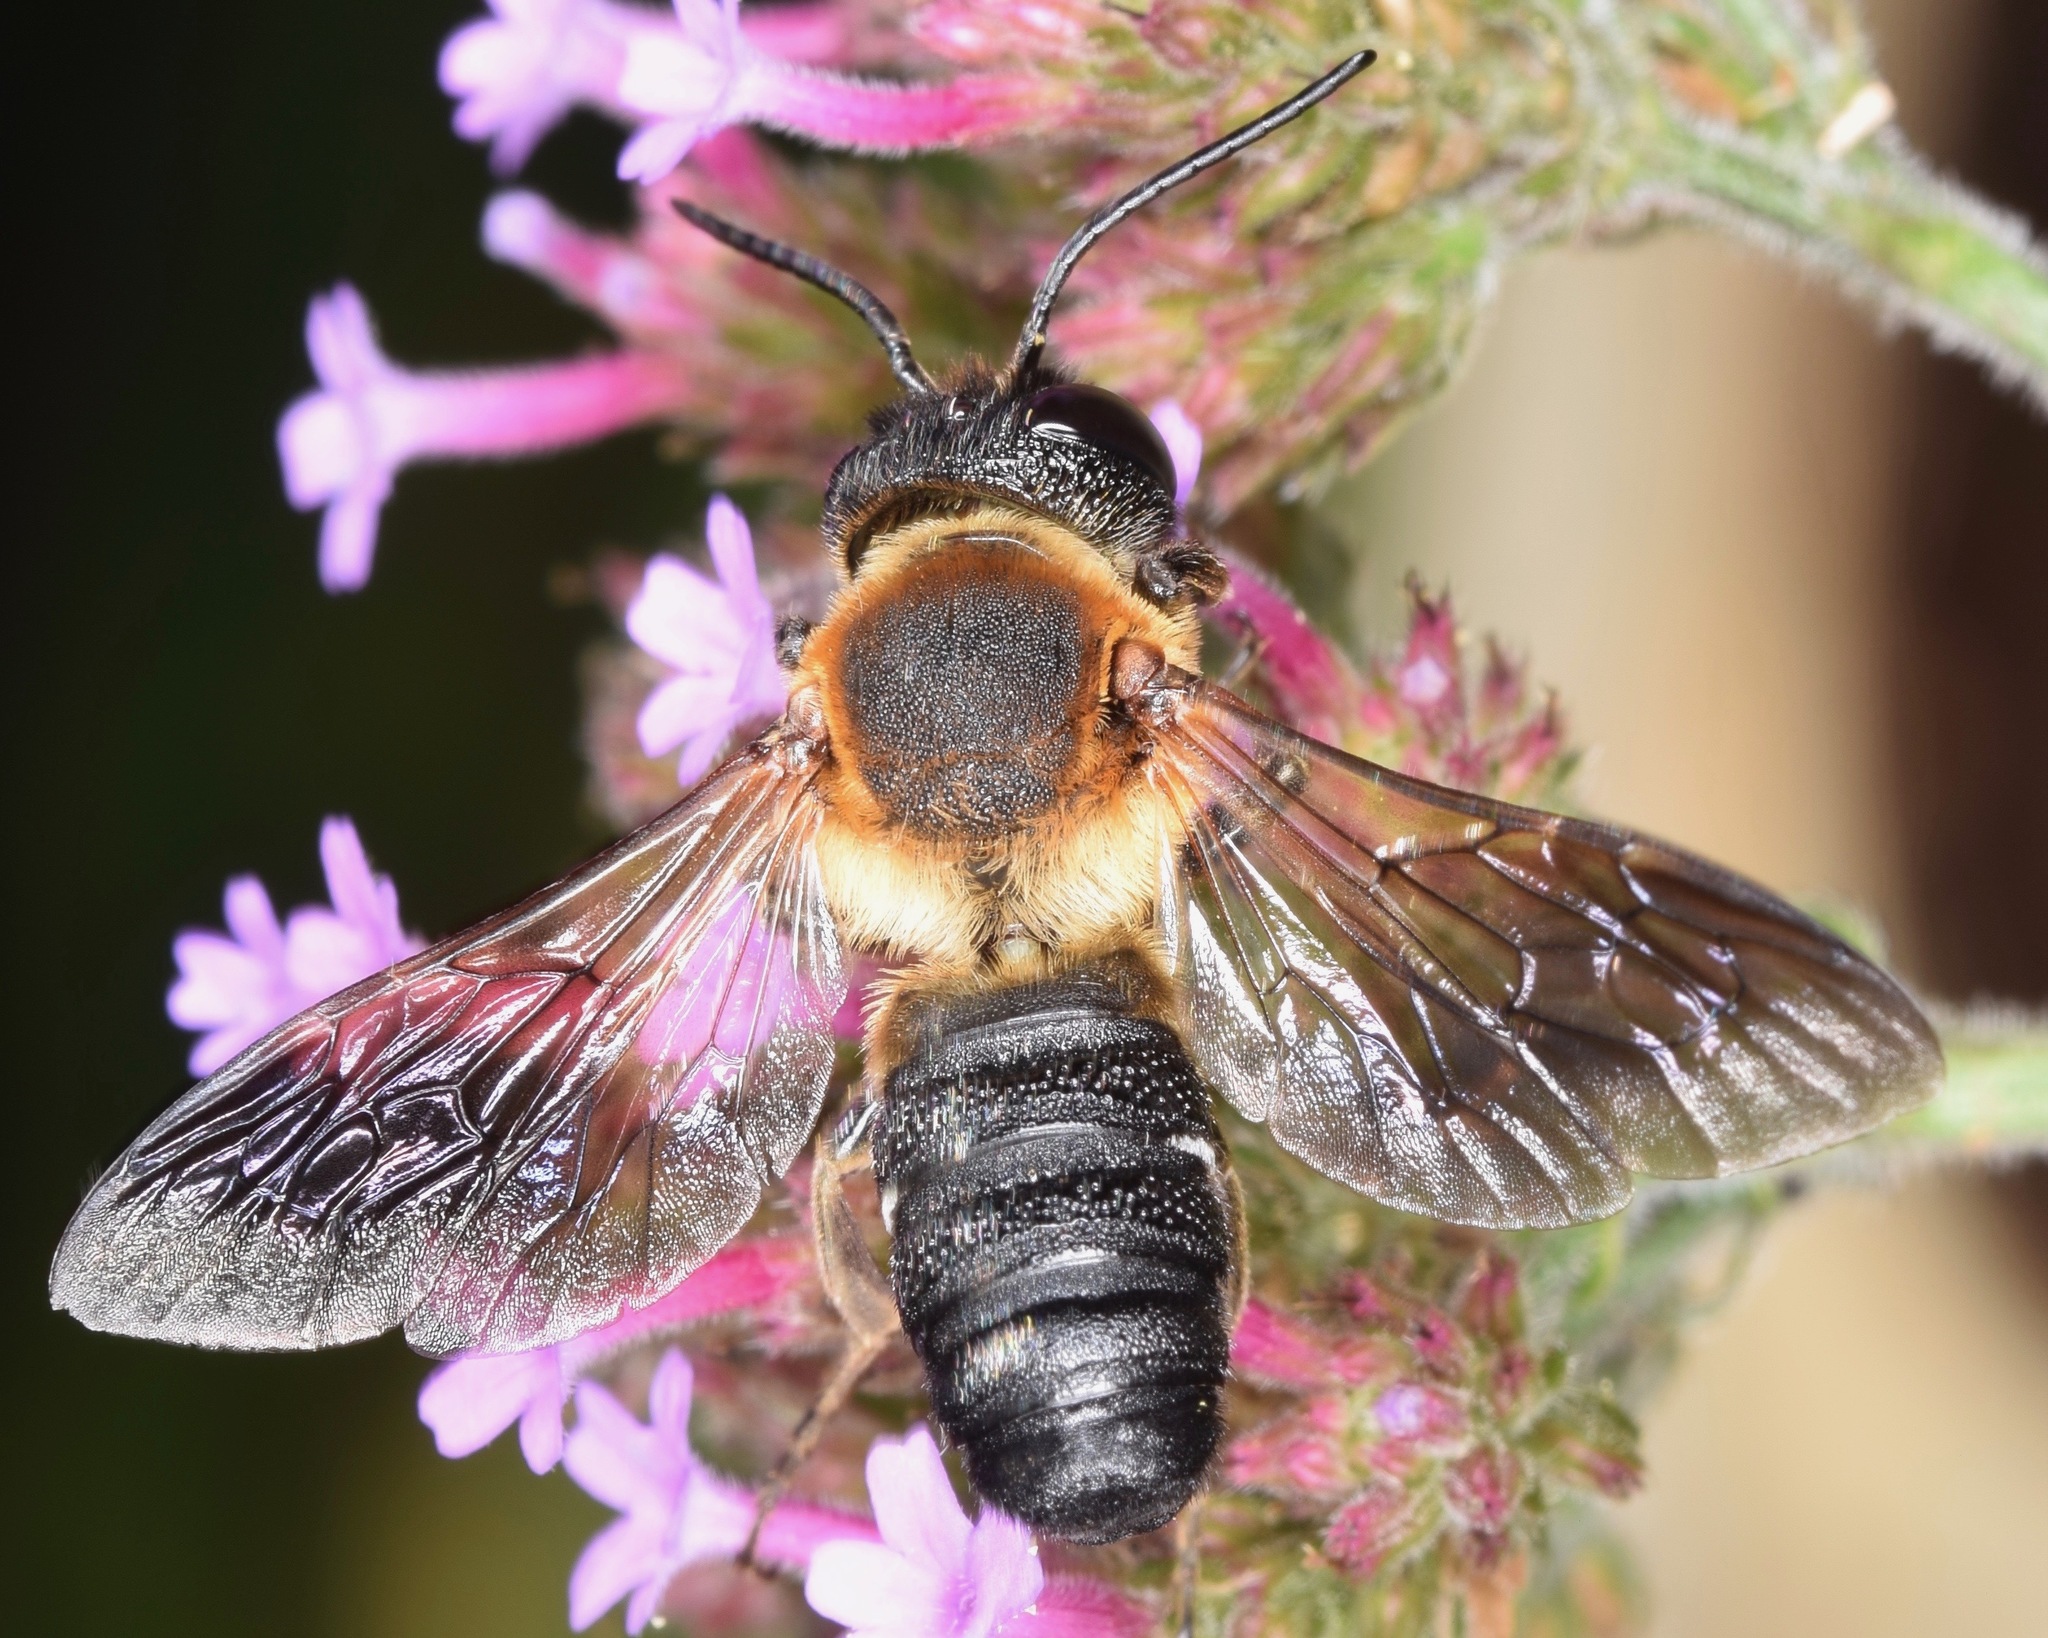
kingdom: Animalia
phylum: Arthropoda
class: Insecta
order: Hymenoptera
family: Megachilidae
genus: Megachile
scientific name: Megachile sculpturalis
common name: Sculptured resin bee
